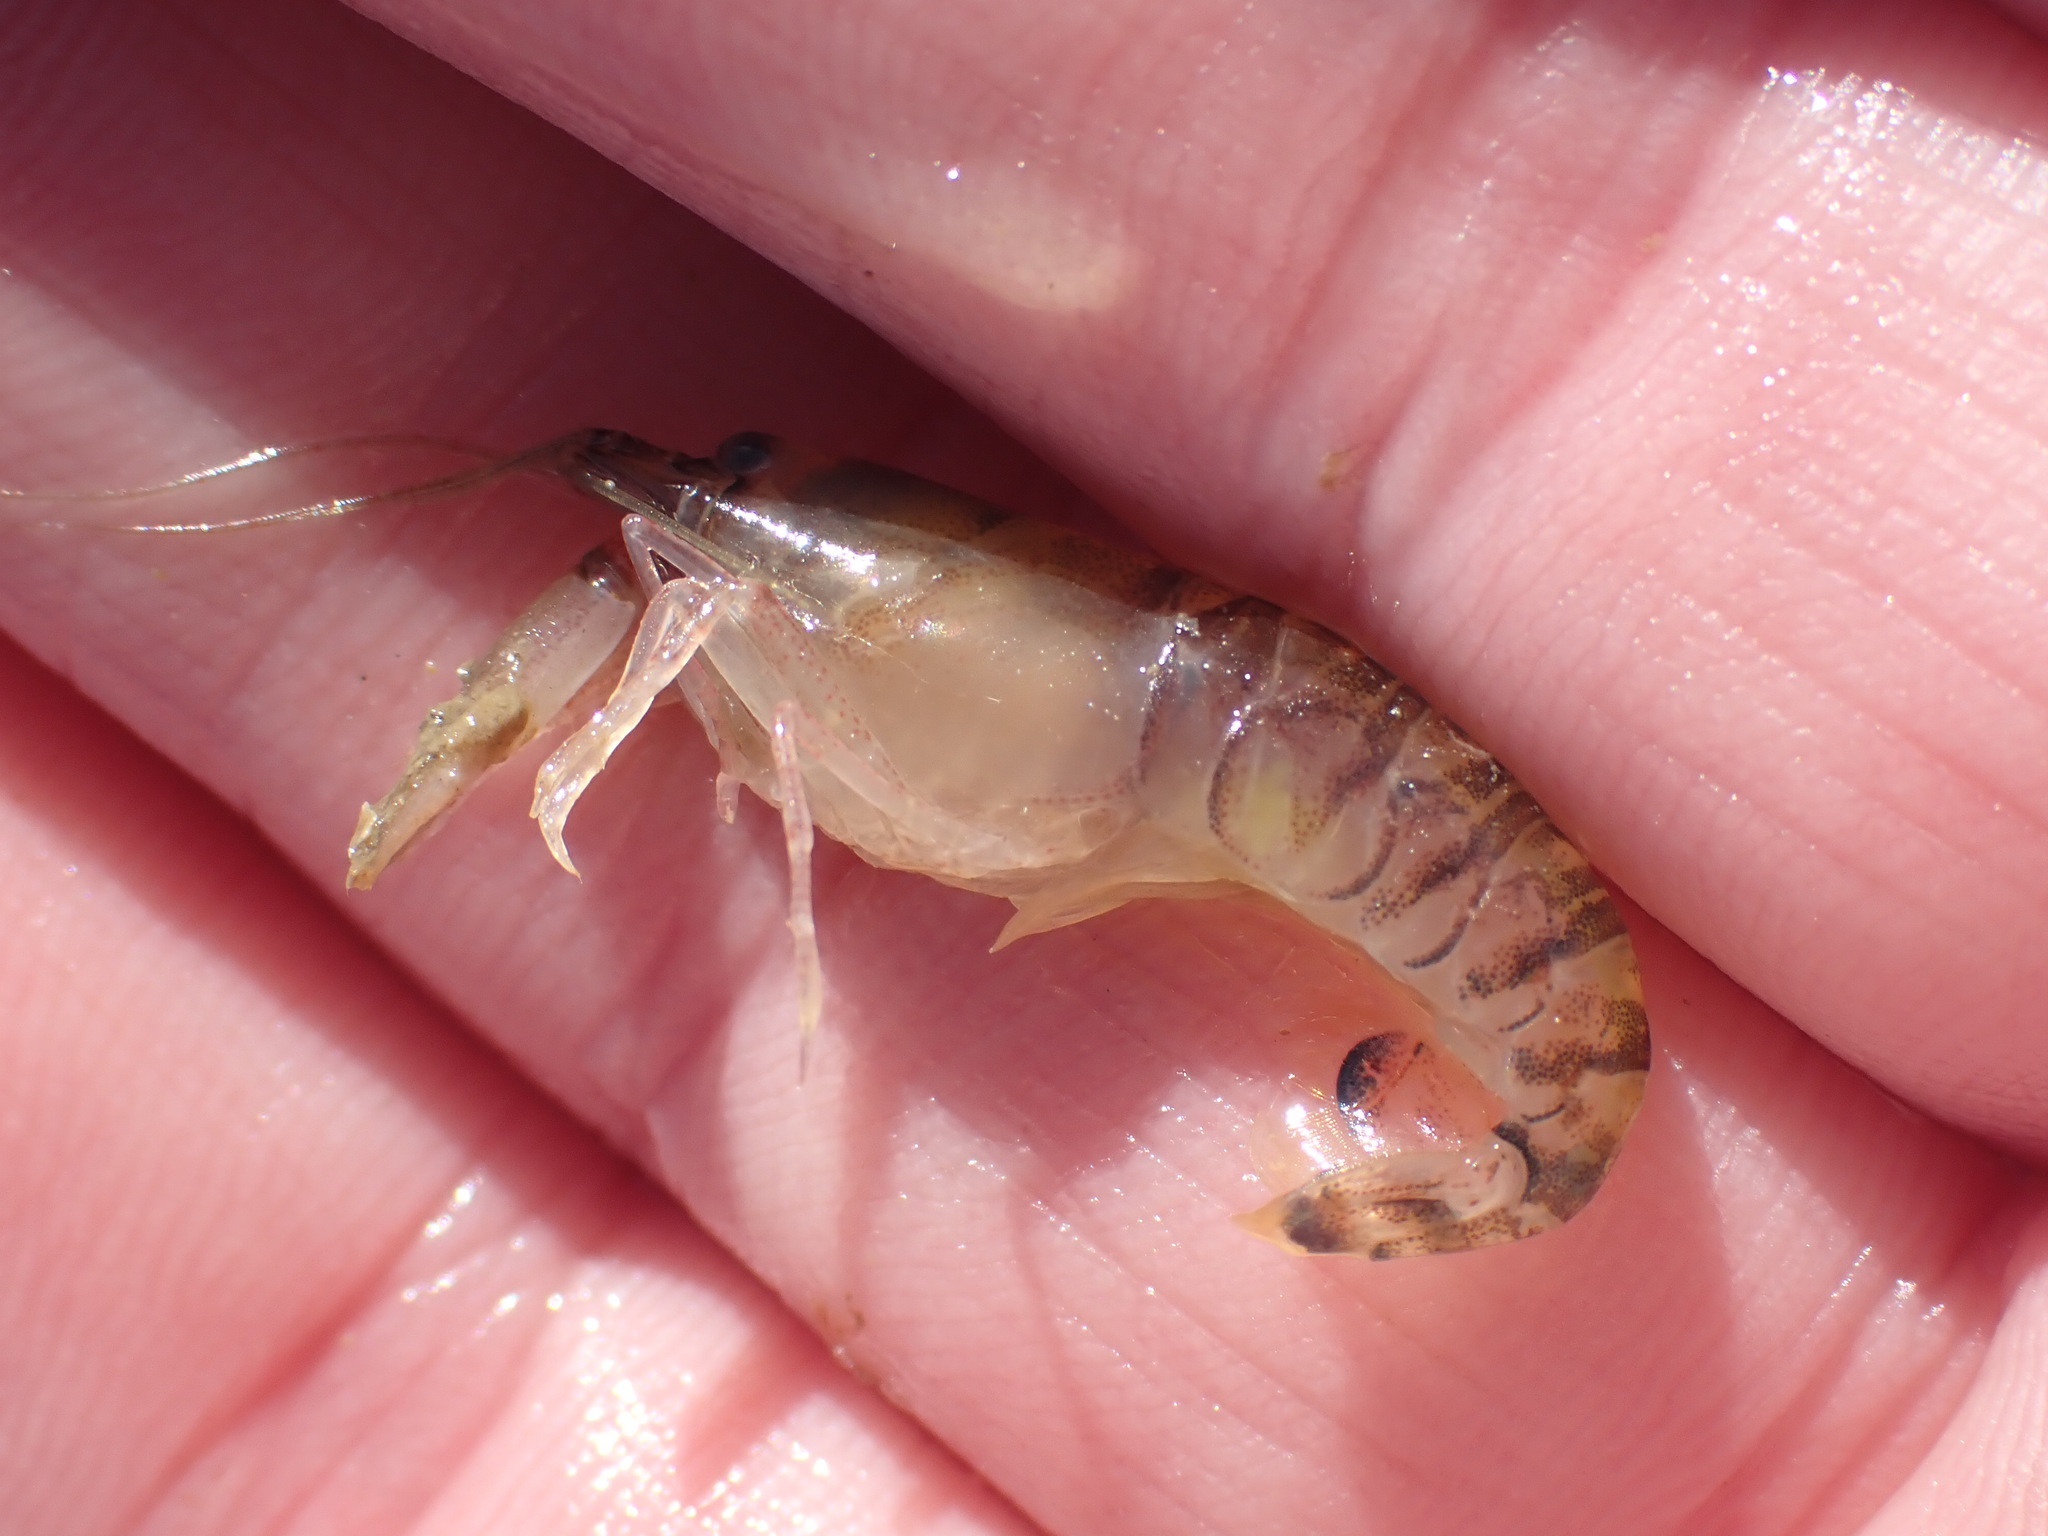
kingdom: Animalia
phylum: Arthropoda
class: Malacostraca
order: Decapoda
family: Alpheidae
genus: Alpheus
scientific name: Alpheus richardsoni
